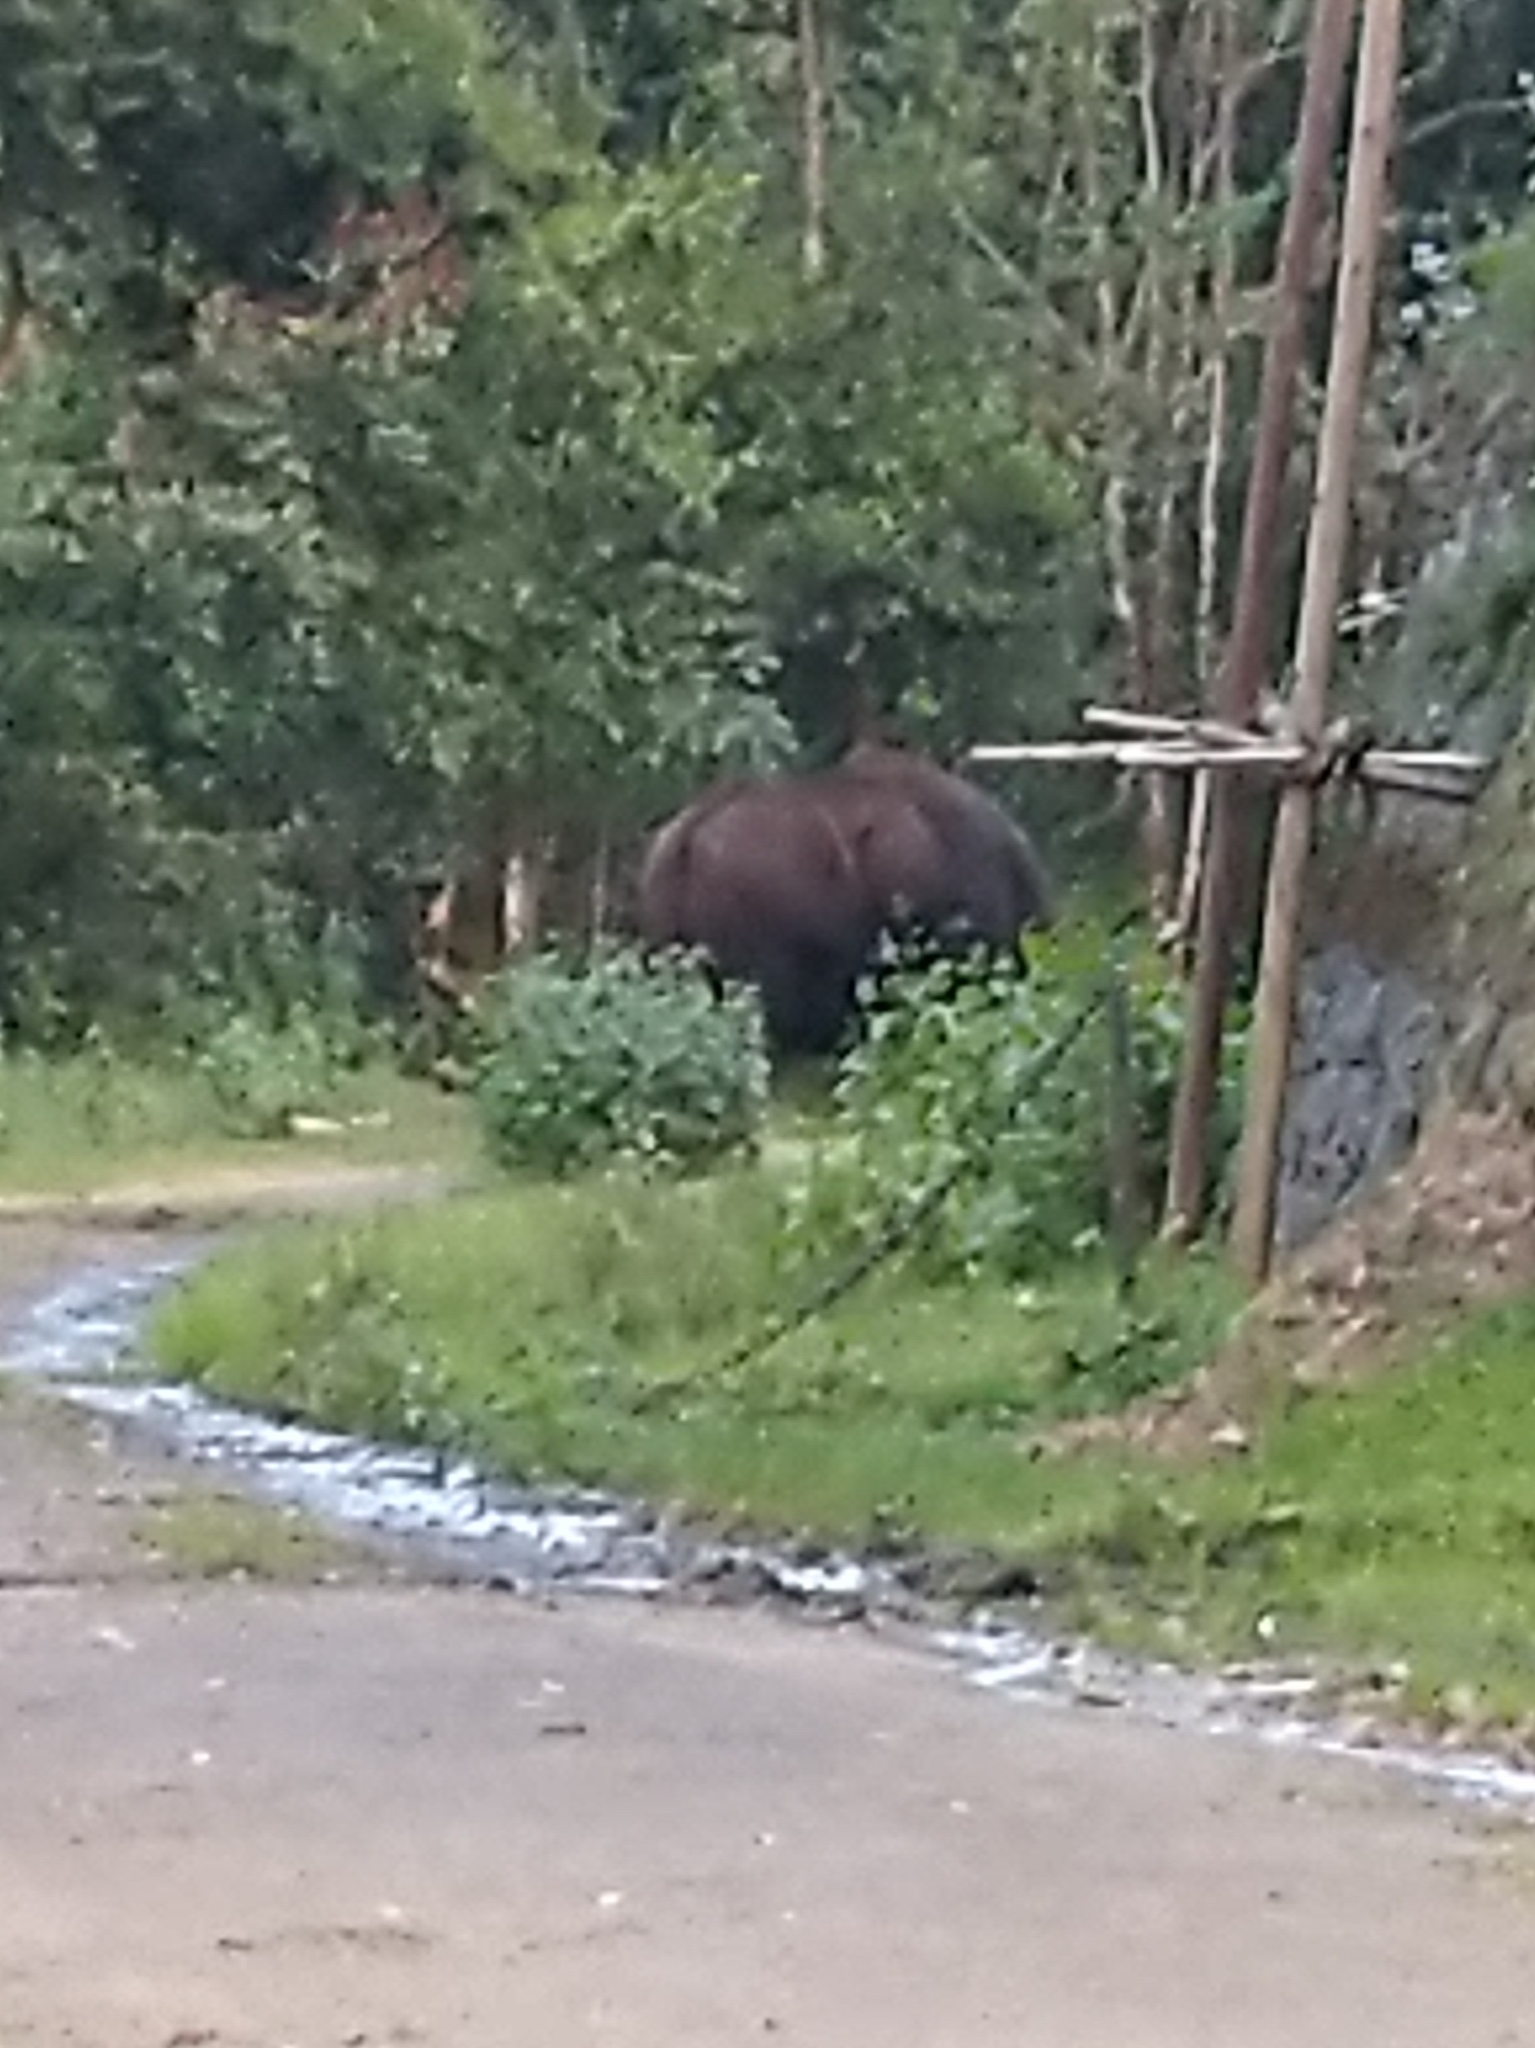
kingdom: Animalia
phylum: Chordata
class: Mammalia
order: Artiodactyla
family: Bovidae
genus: Bos
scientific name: Bos frontalis
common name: Gaur
